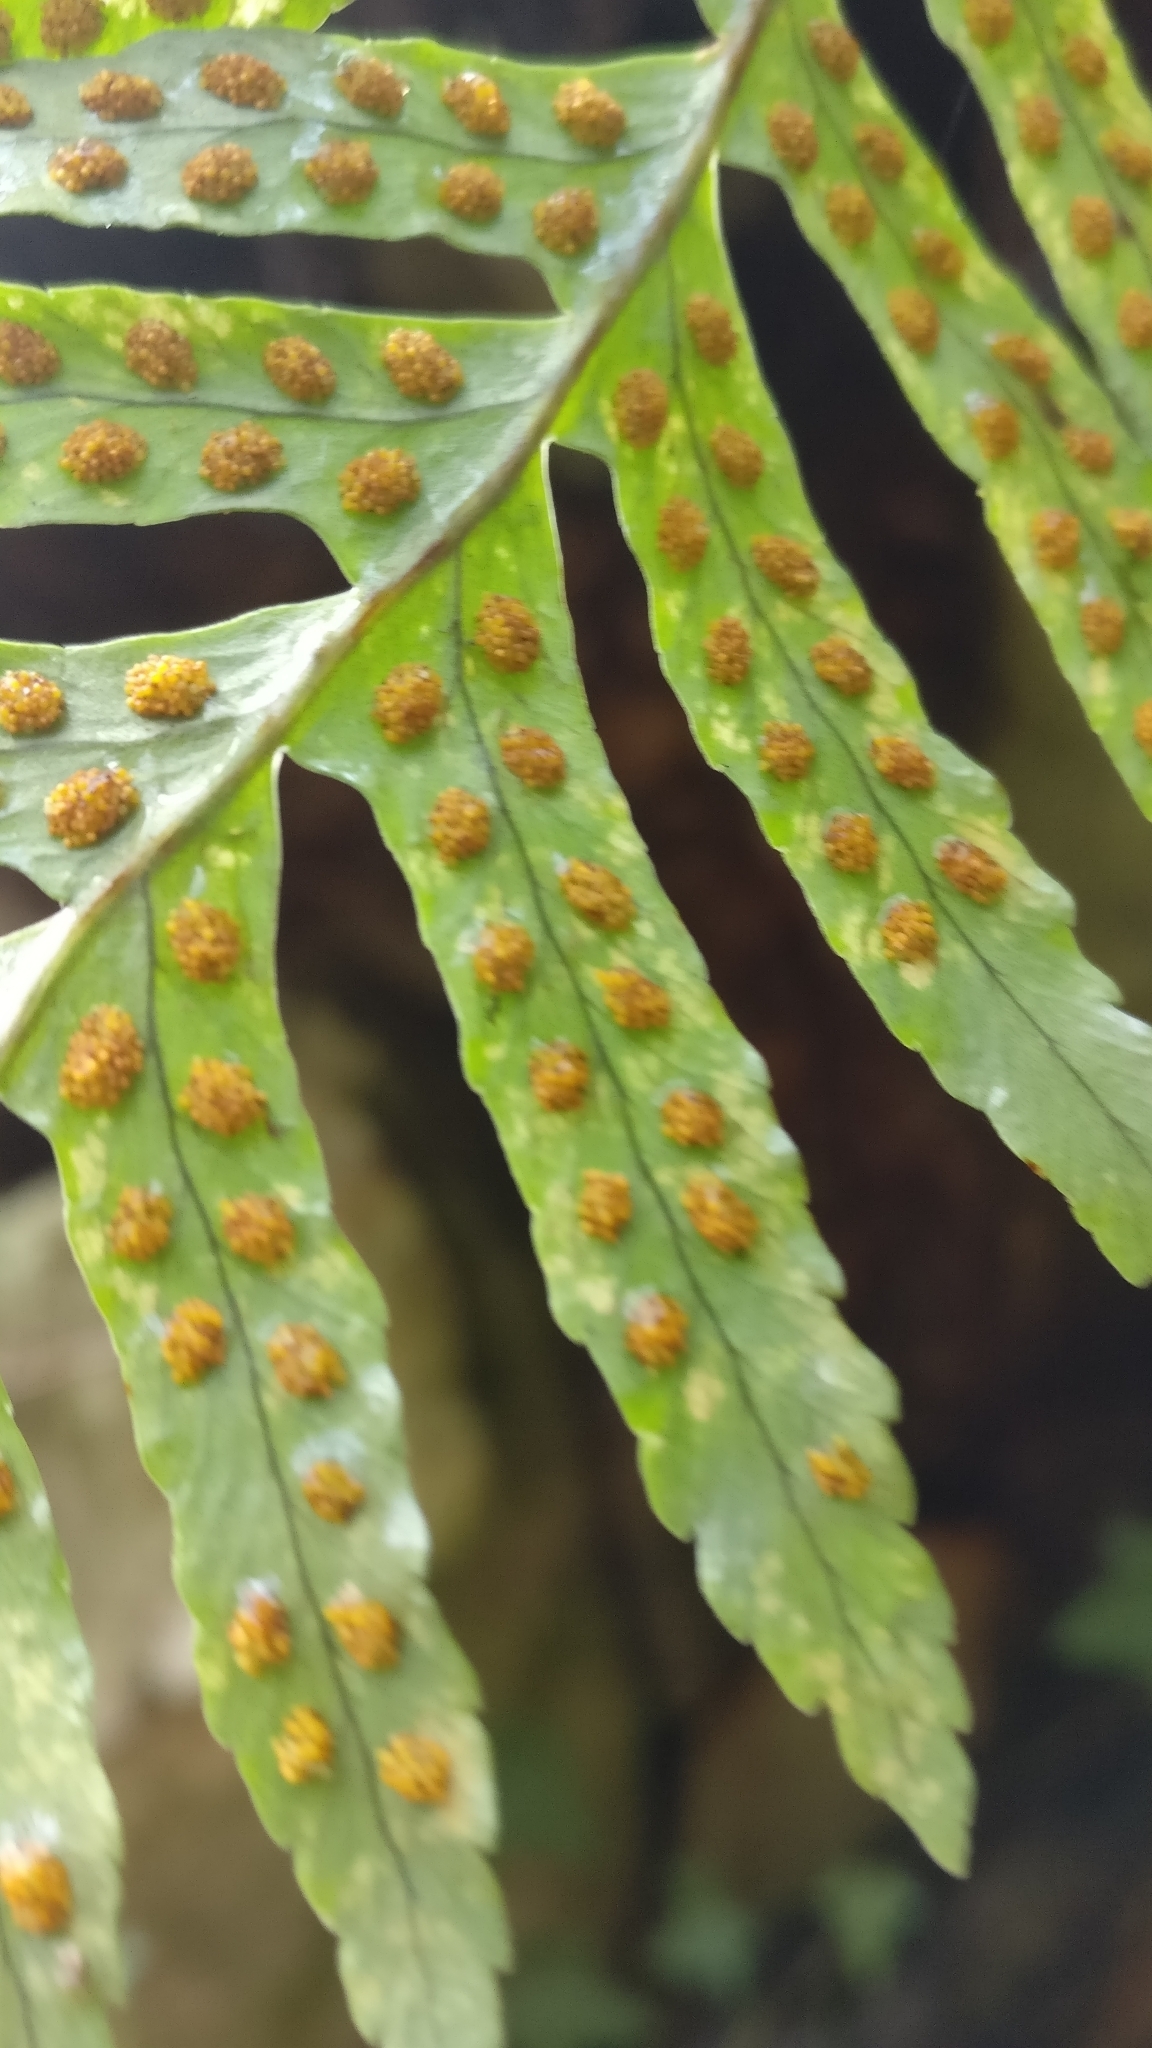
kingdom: Plantae
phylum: Tracheophyta
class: Polypodiopsida
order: Polypodiales
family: Polypodiaceae
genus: Polypodium
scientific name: Polypodium
